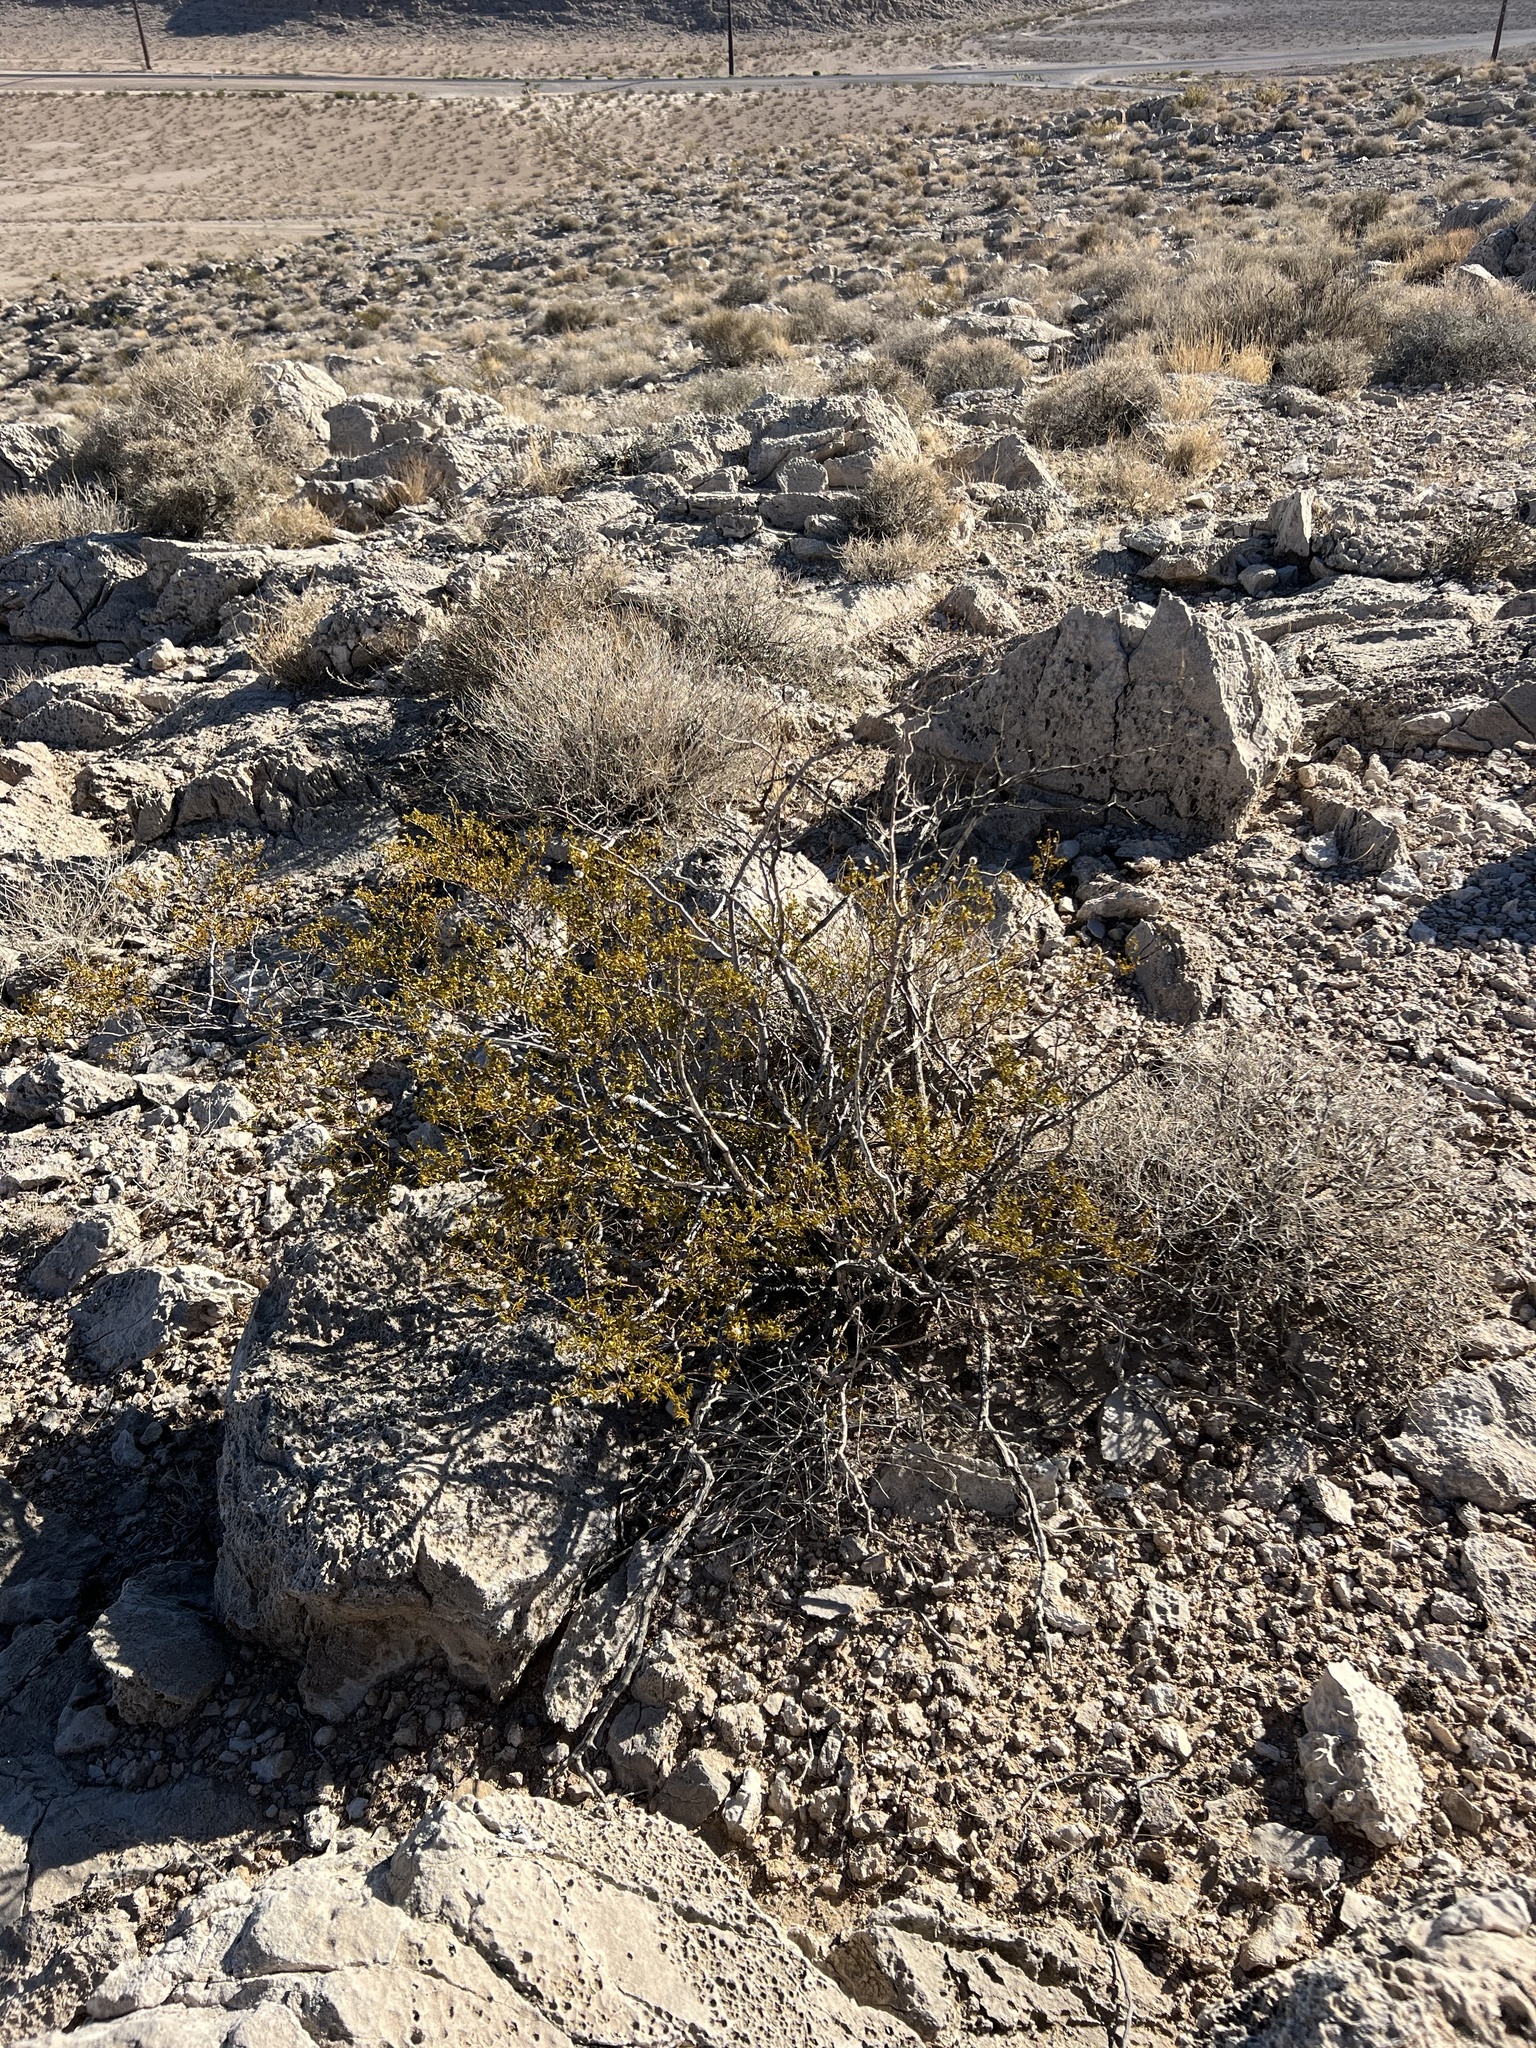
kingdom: Plantae
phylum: Tracheophyta
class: Magnoliopsida
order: Zygophyllales
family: Zygophyllaceae
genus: Larrea
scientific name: Larrea tridentata
